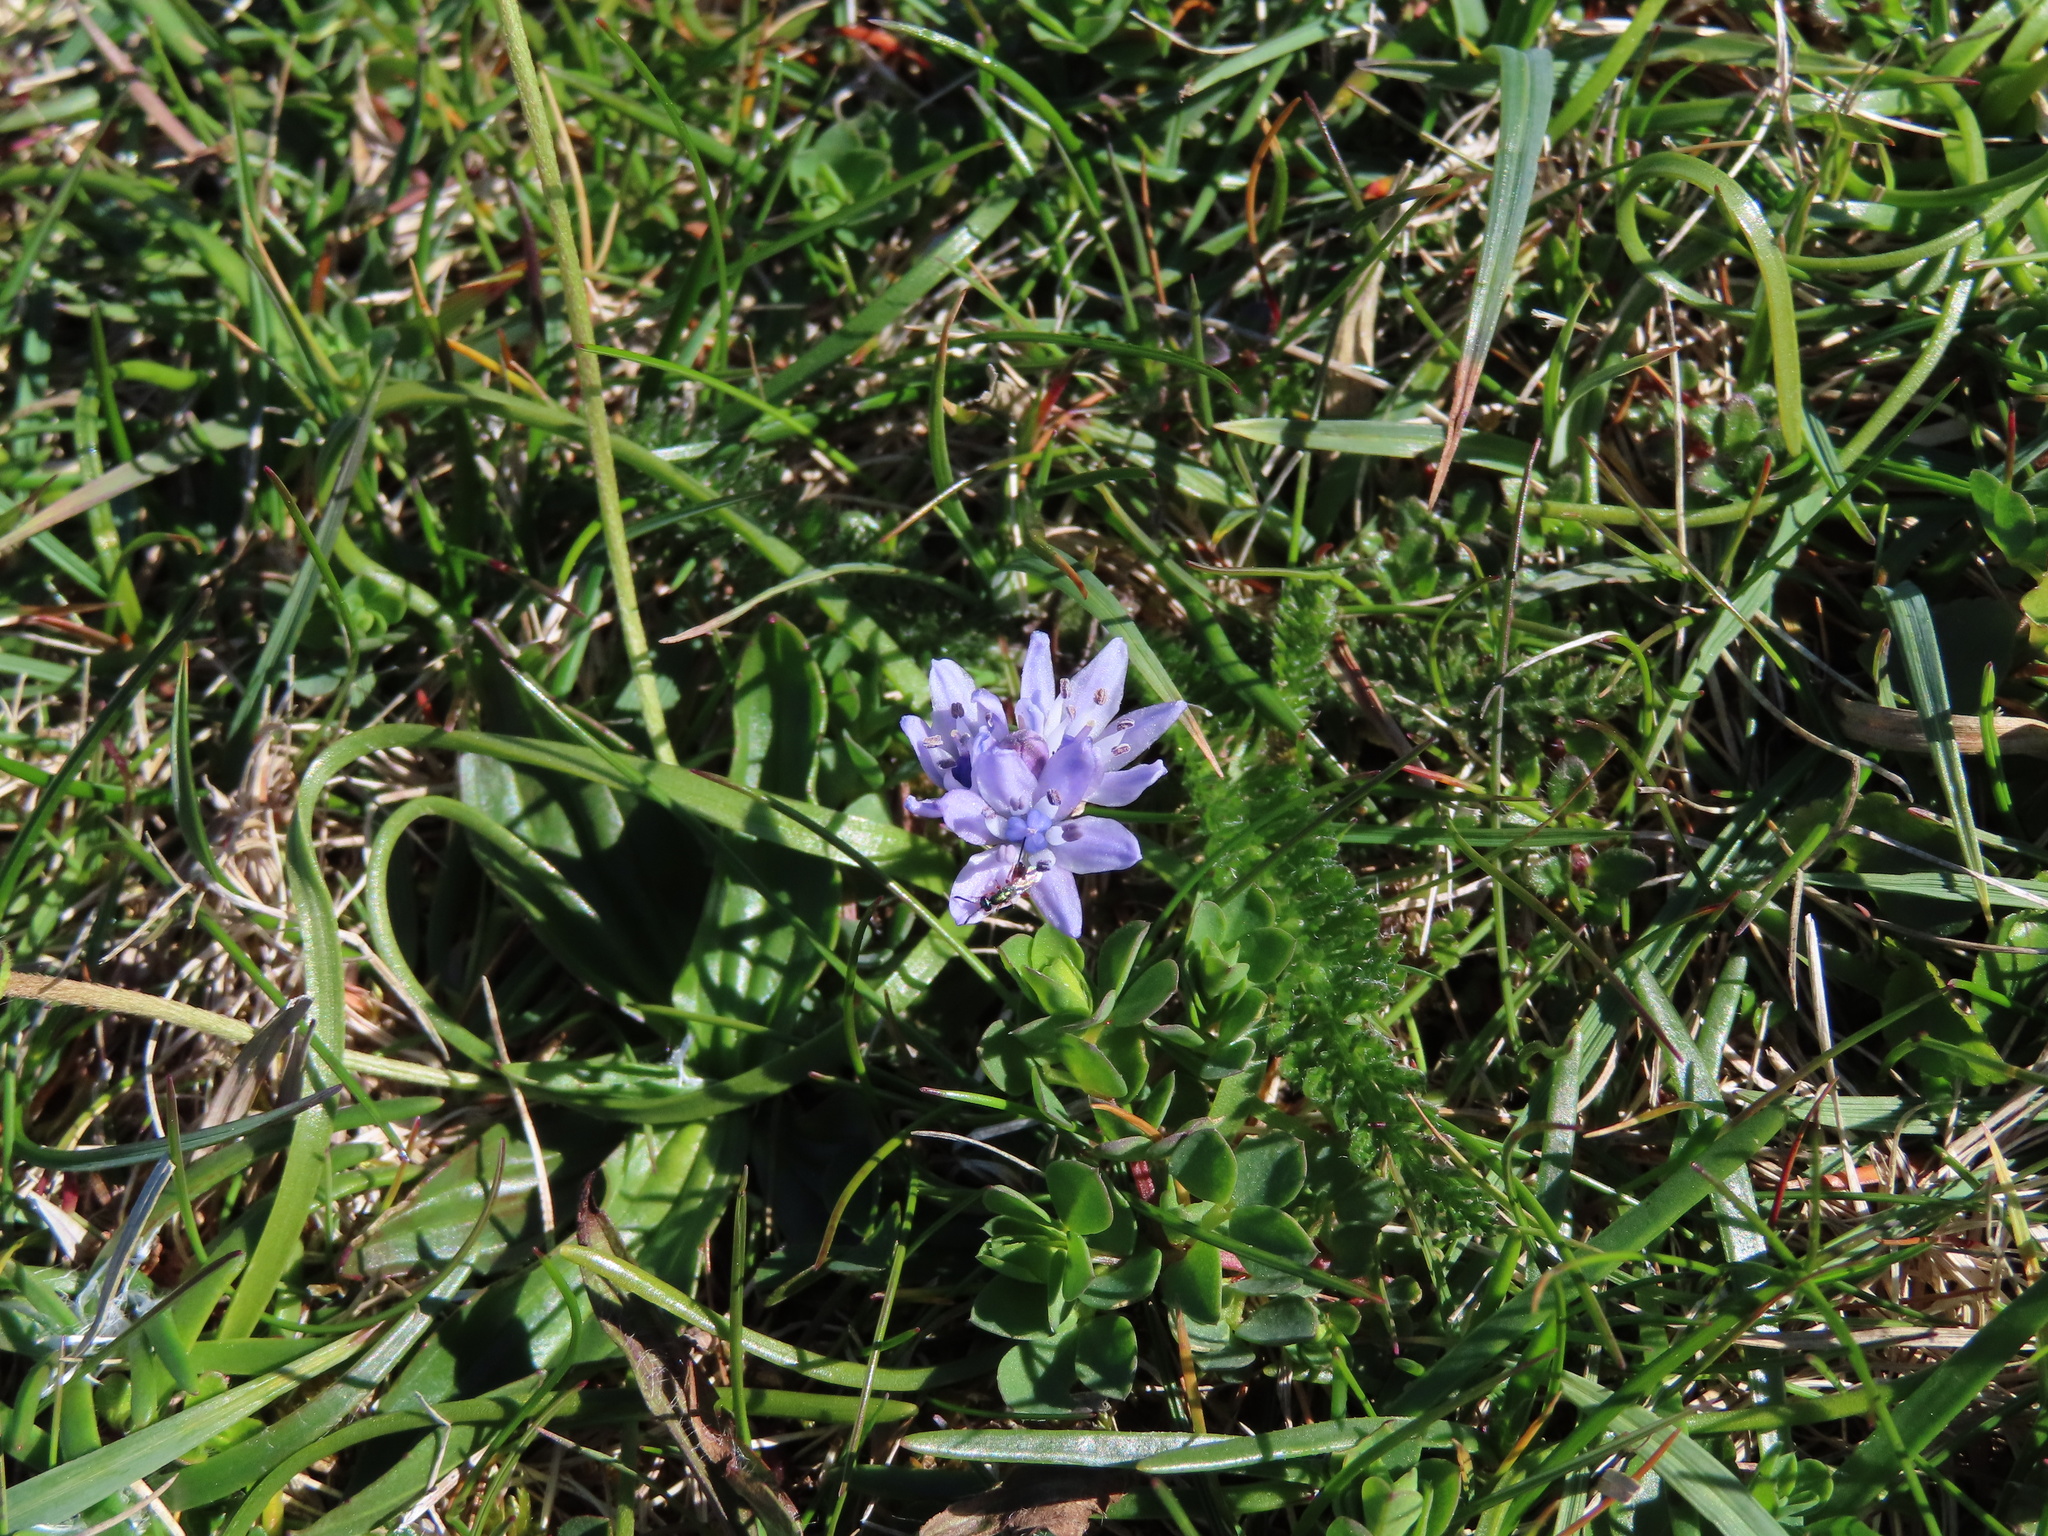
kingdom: Plantae
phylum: Tracheophyta
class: Liliopsida
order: Asparagales
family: Asparagaceae
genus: Scilla
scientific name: Scilla verna
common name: Spring squill
